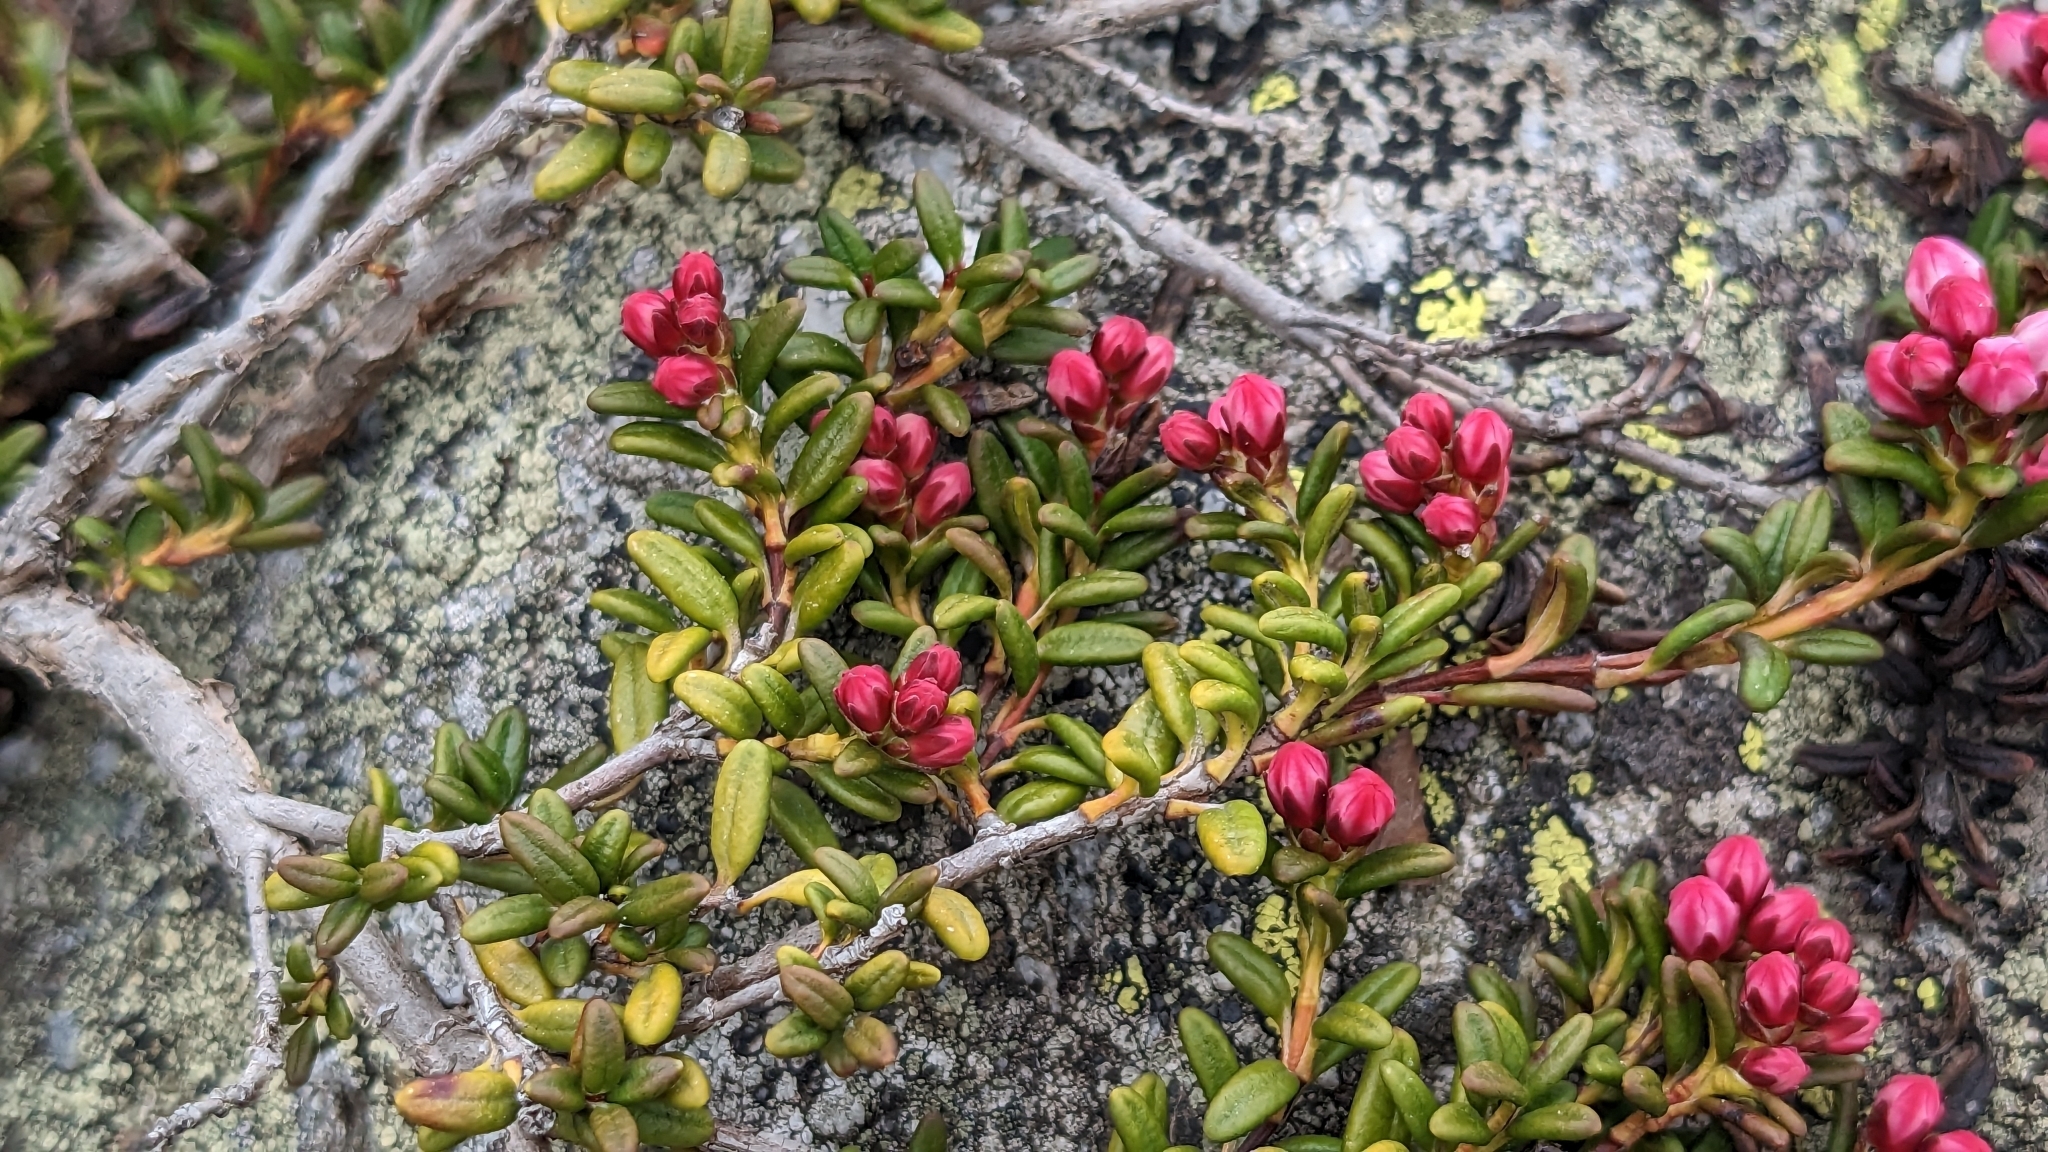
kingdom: Plantae
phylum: Tracheophyta
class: Magnoliopsida
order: Ericales
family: Ericaceae
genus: Kalmia
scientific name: Kalmia procumbens
